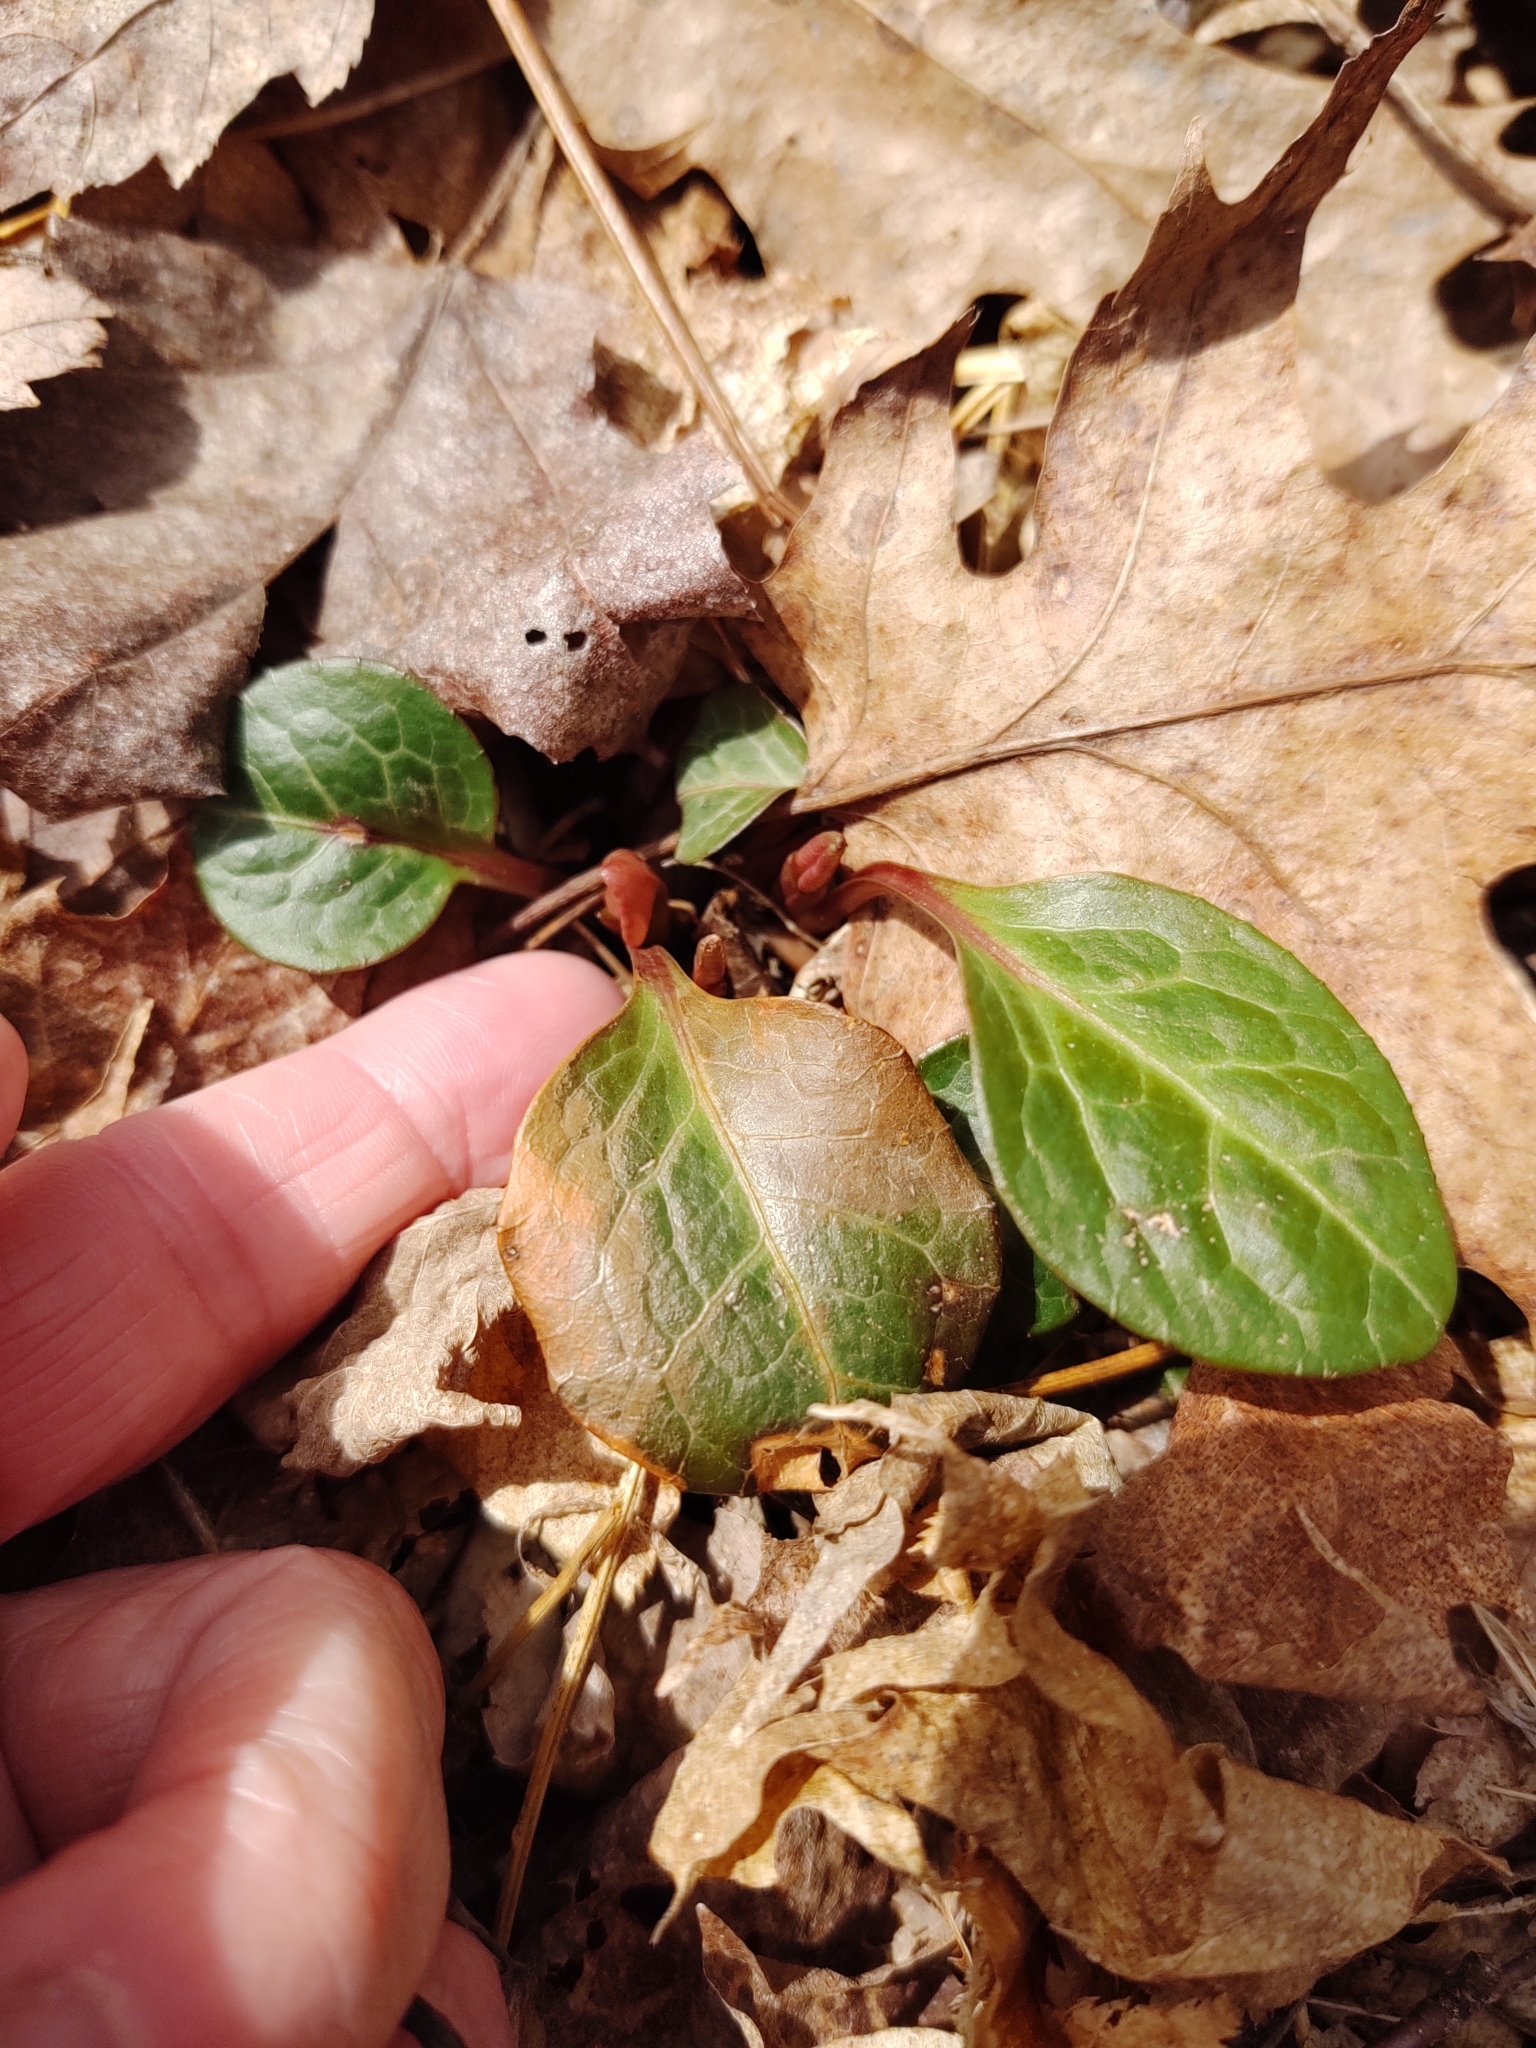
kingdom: Plantae
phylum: Tracheophyta
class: Magnoliopsida
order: Ericales
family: Ericaceae
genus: Pyrola
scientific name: Pyrola americana
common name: American wintergreen
